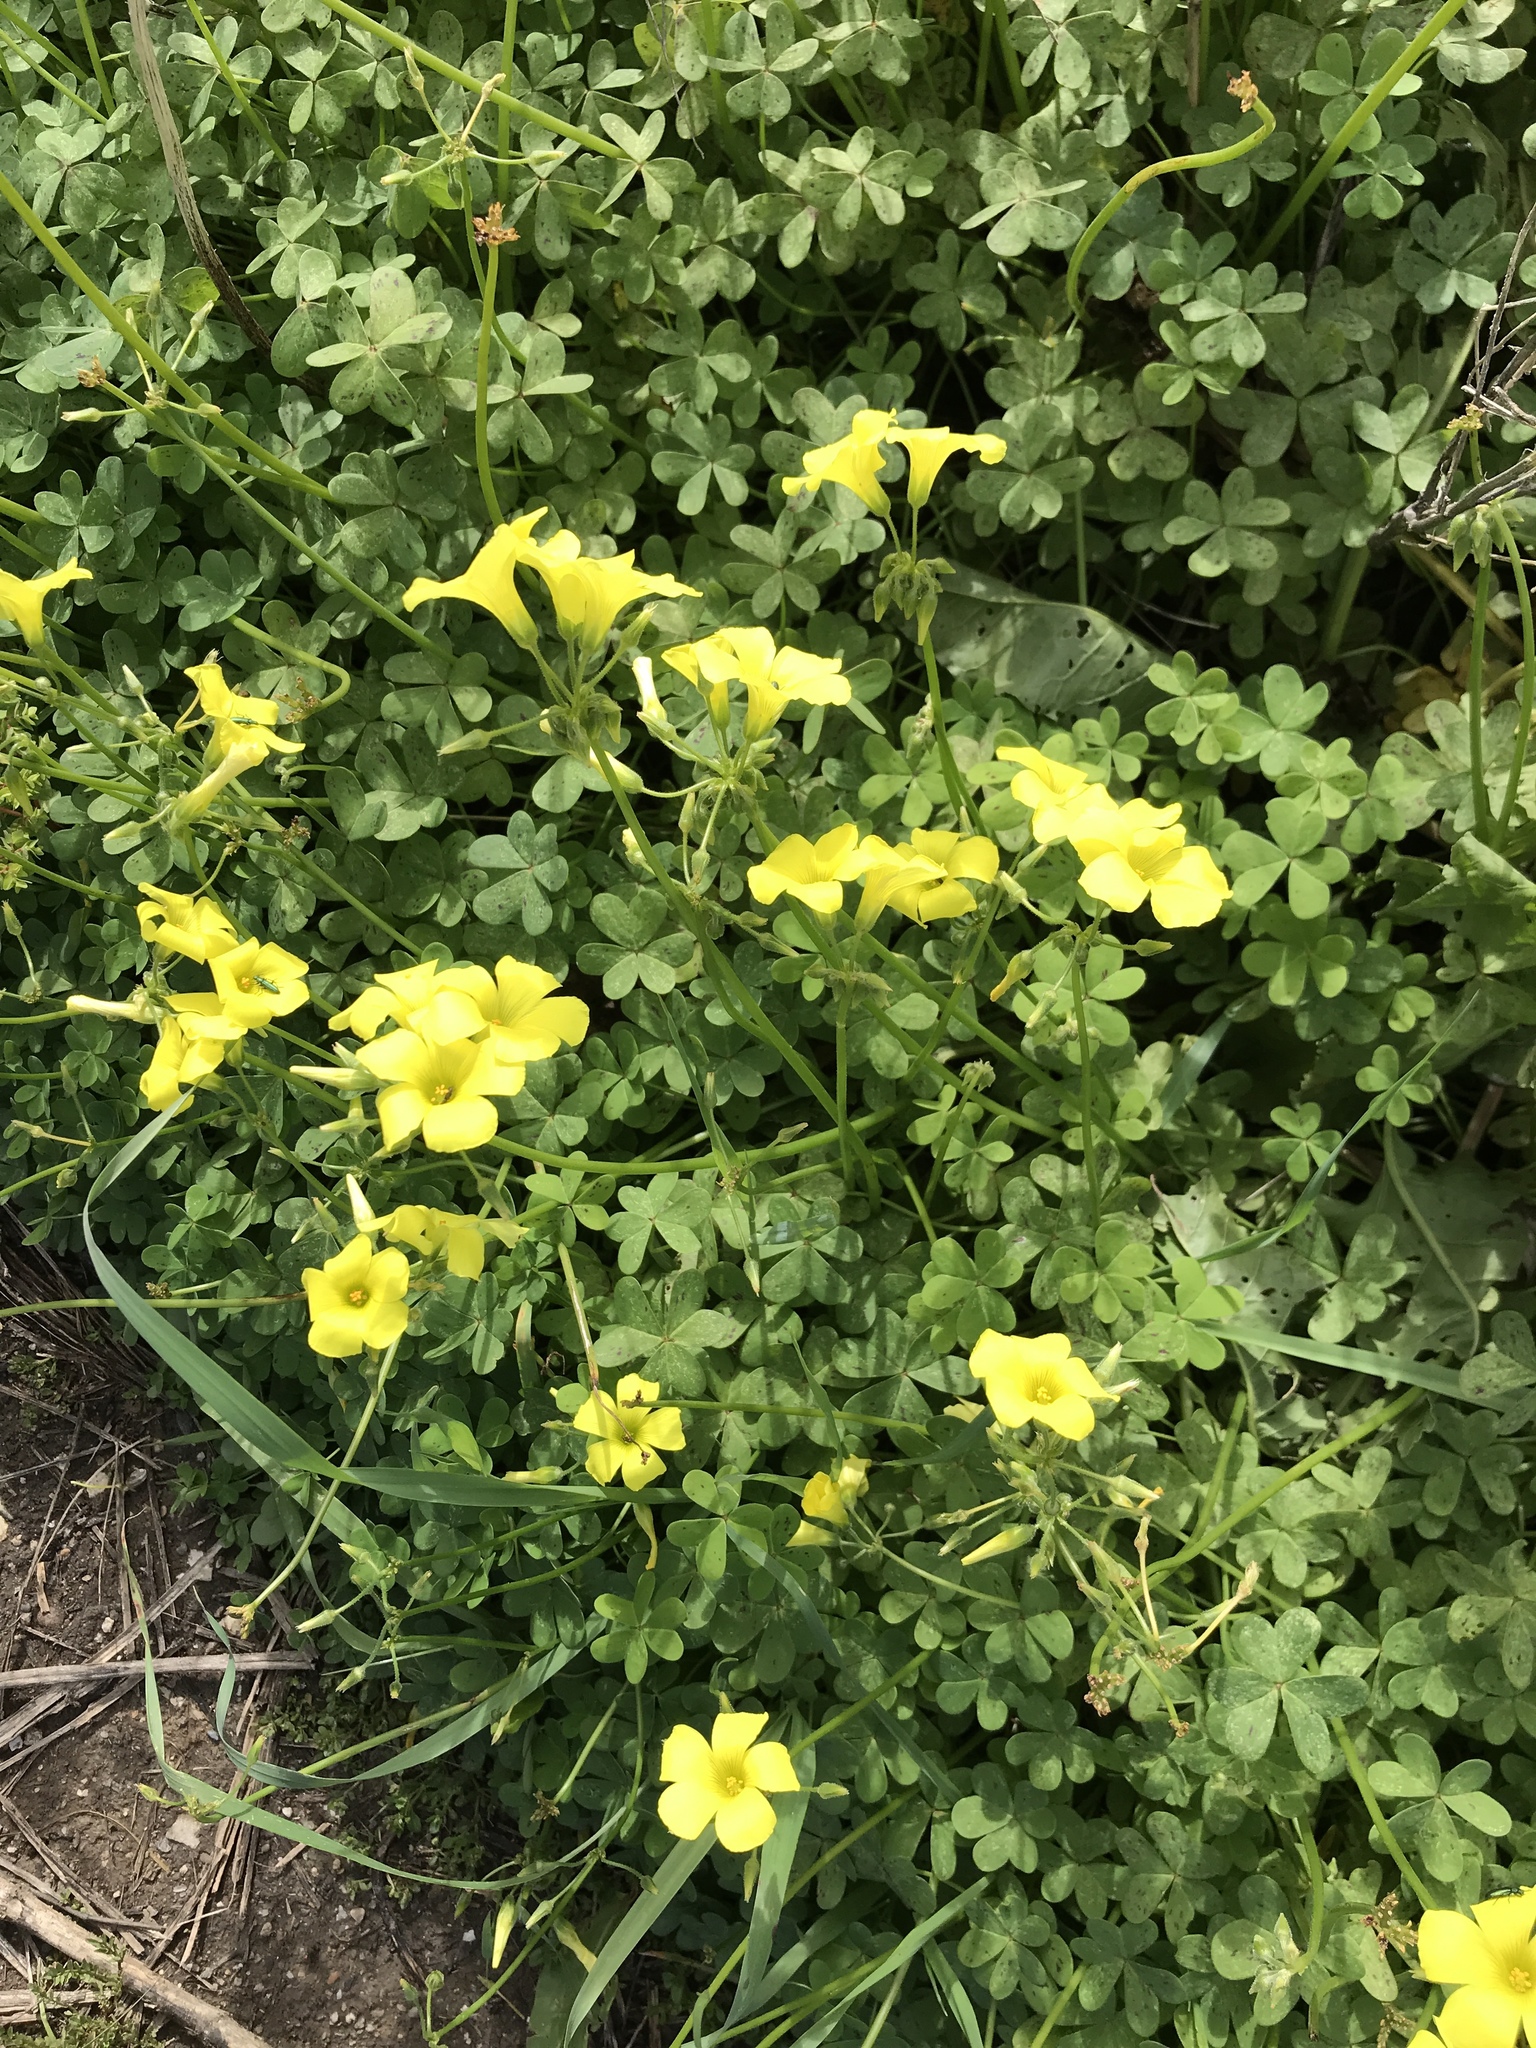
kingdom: Plantae
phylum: Tracheophyta
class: Magnoliopsida
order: Oxalidales
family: Oxalidaceae
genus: Oxalis
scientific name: Oxalis pes-caprae
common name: Bermuda-buttercup
